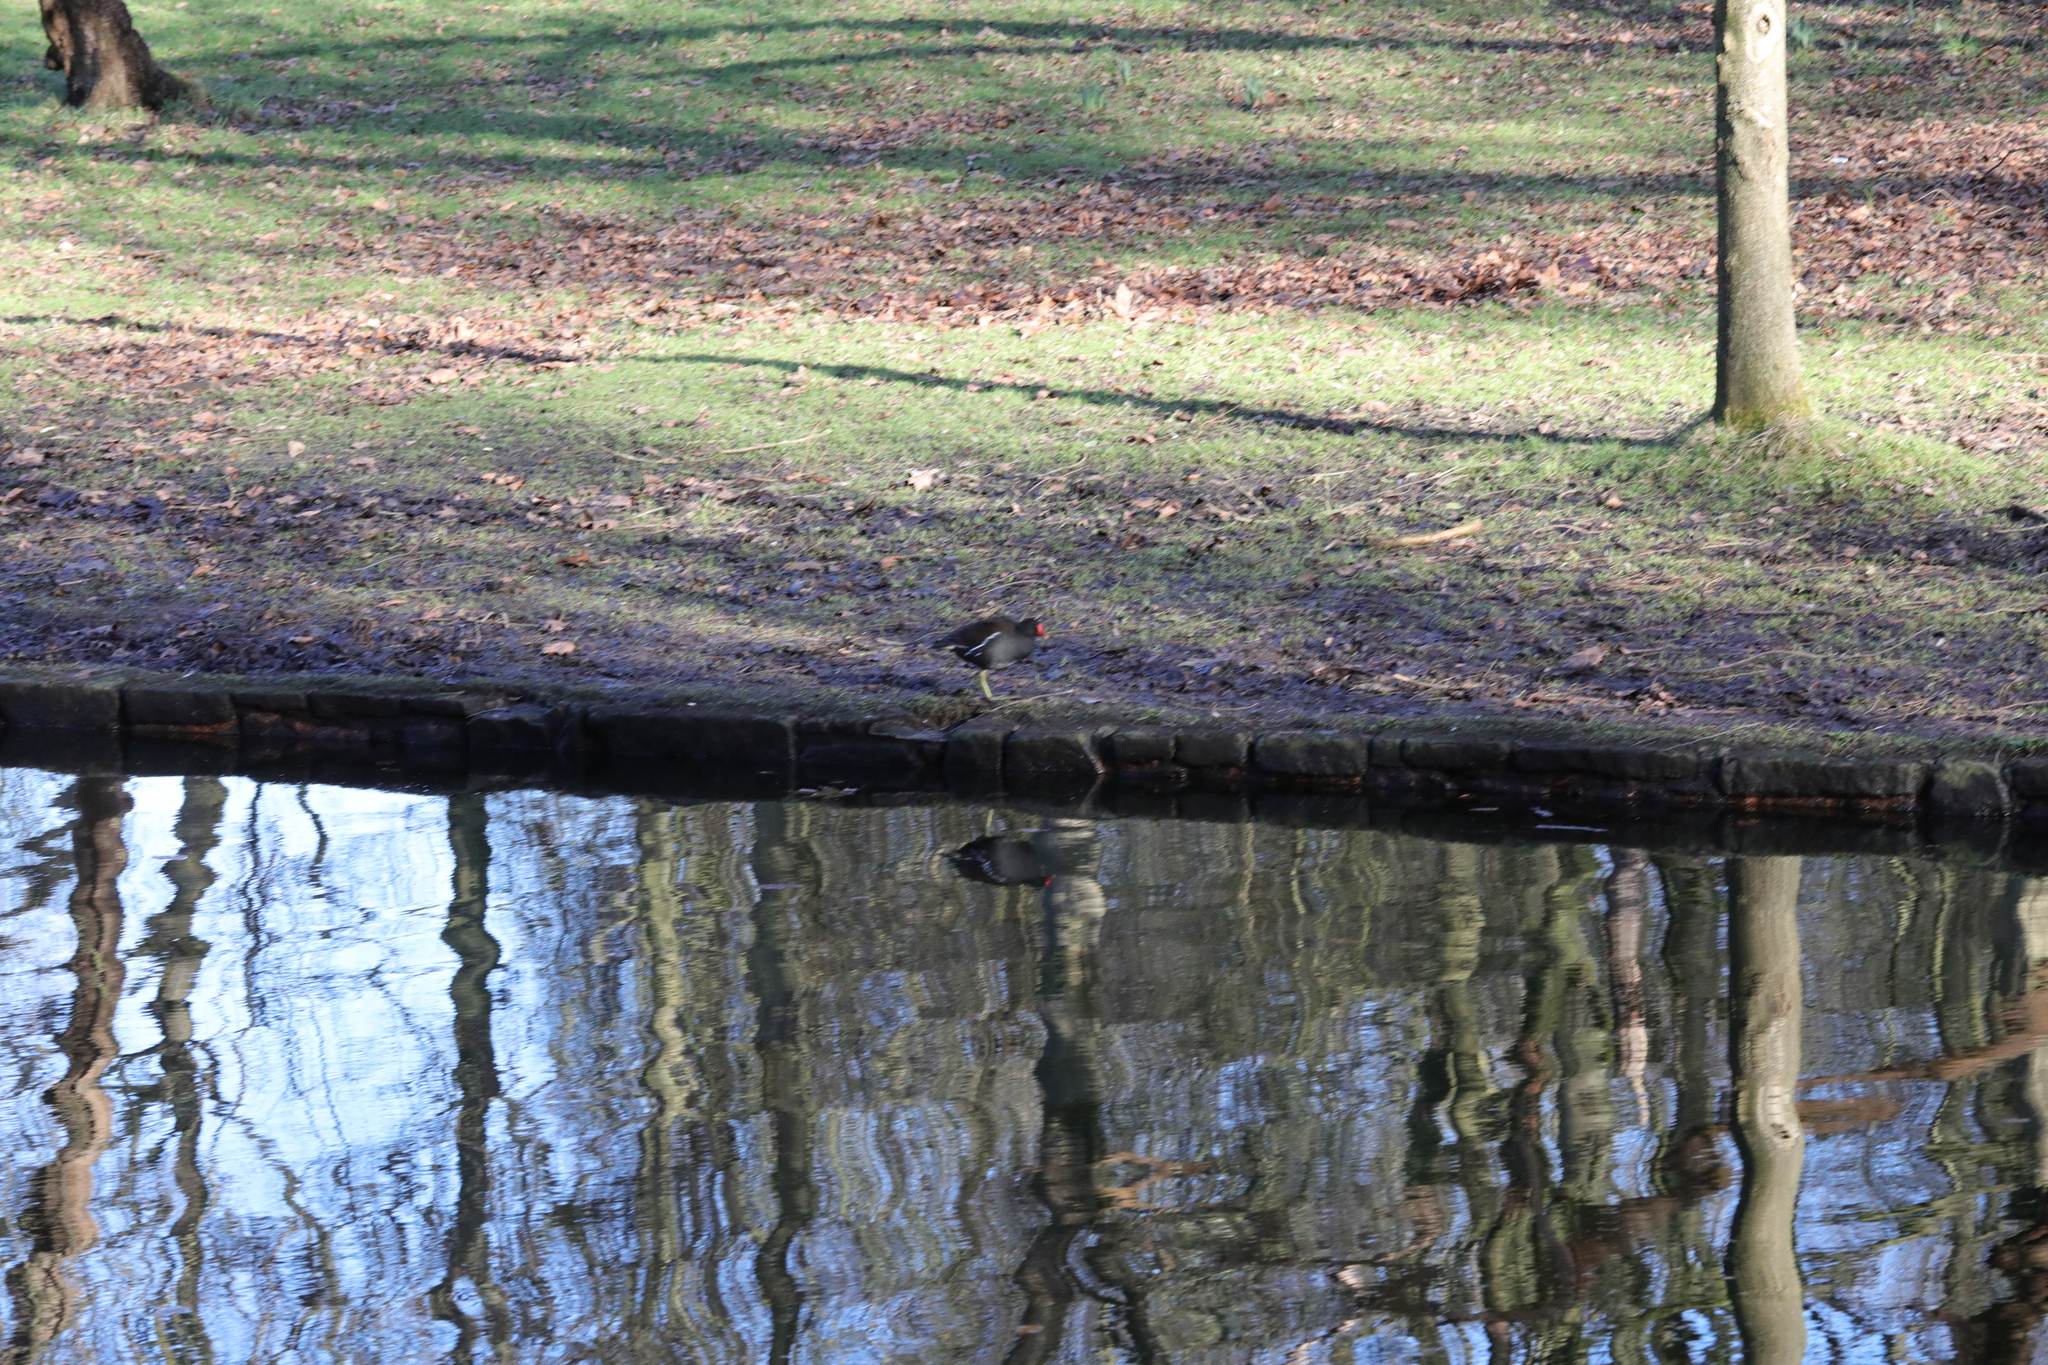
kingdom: Animalia
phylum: Chordata
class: Aves
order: Gruiformes
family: Rallidae
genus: Gallinula
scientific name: Gallinula chloropus
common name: Common moorhen
